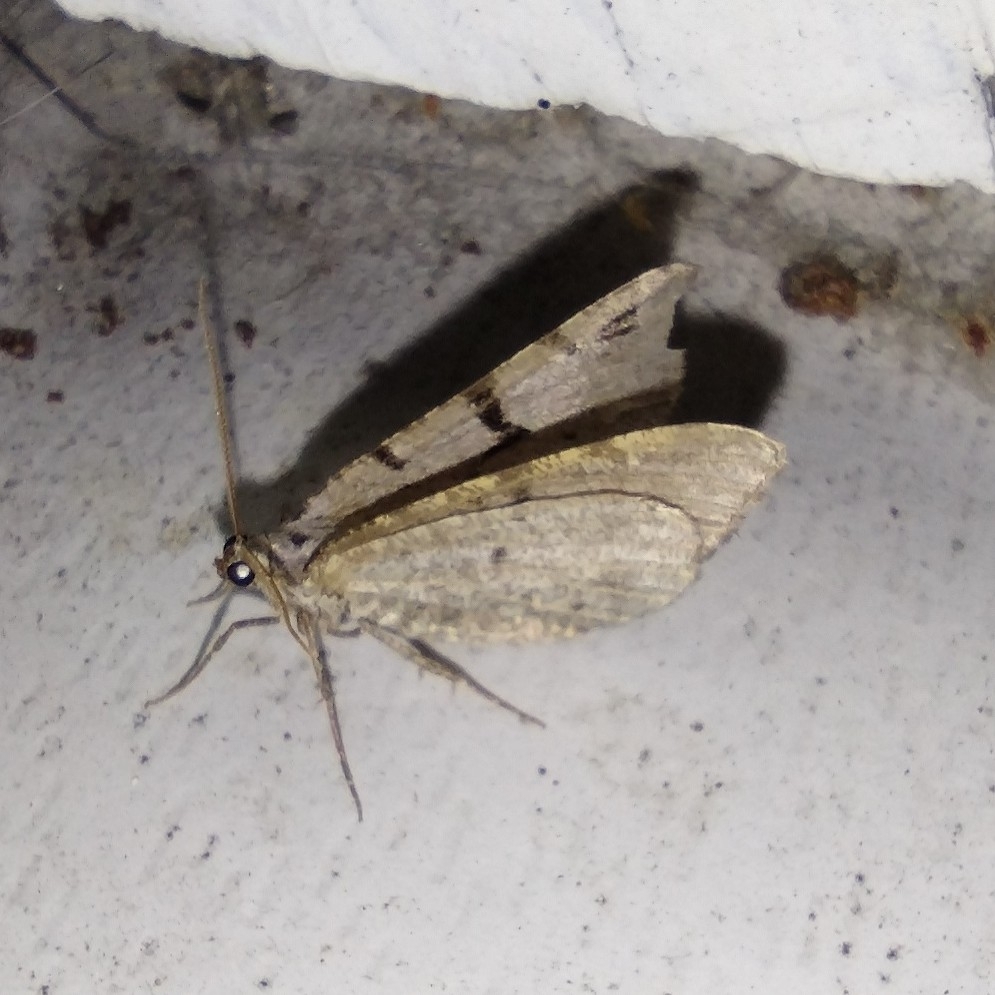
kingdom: Animalia
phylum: Arthropoda
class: Insecta
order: Lepidoptera
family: Geometridae
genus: Macaria
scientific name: Macaria wauaria
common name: V-moth
